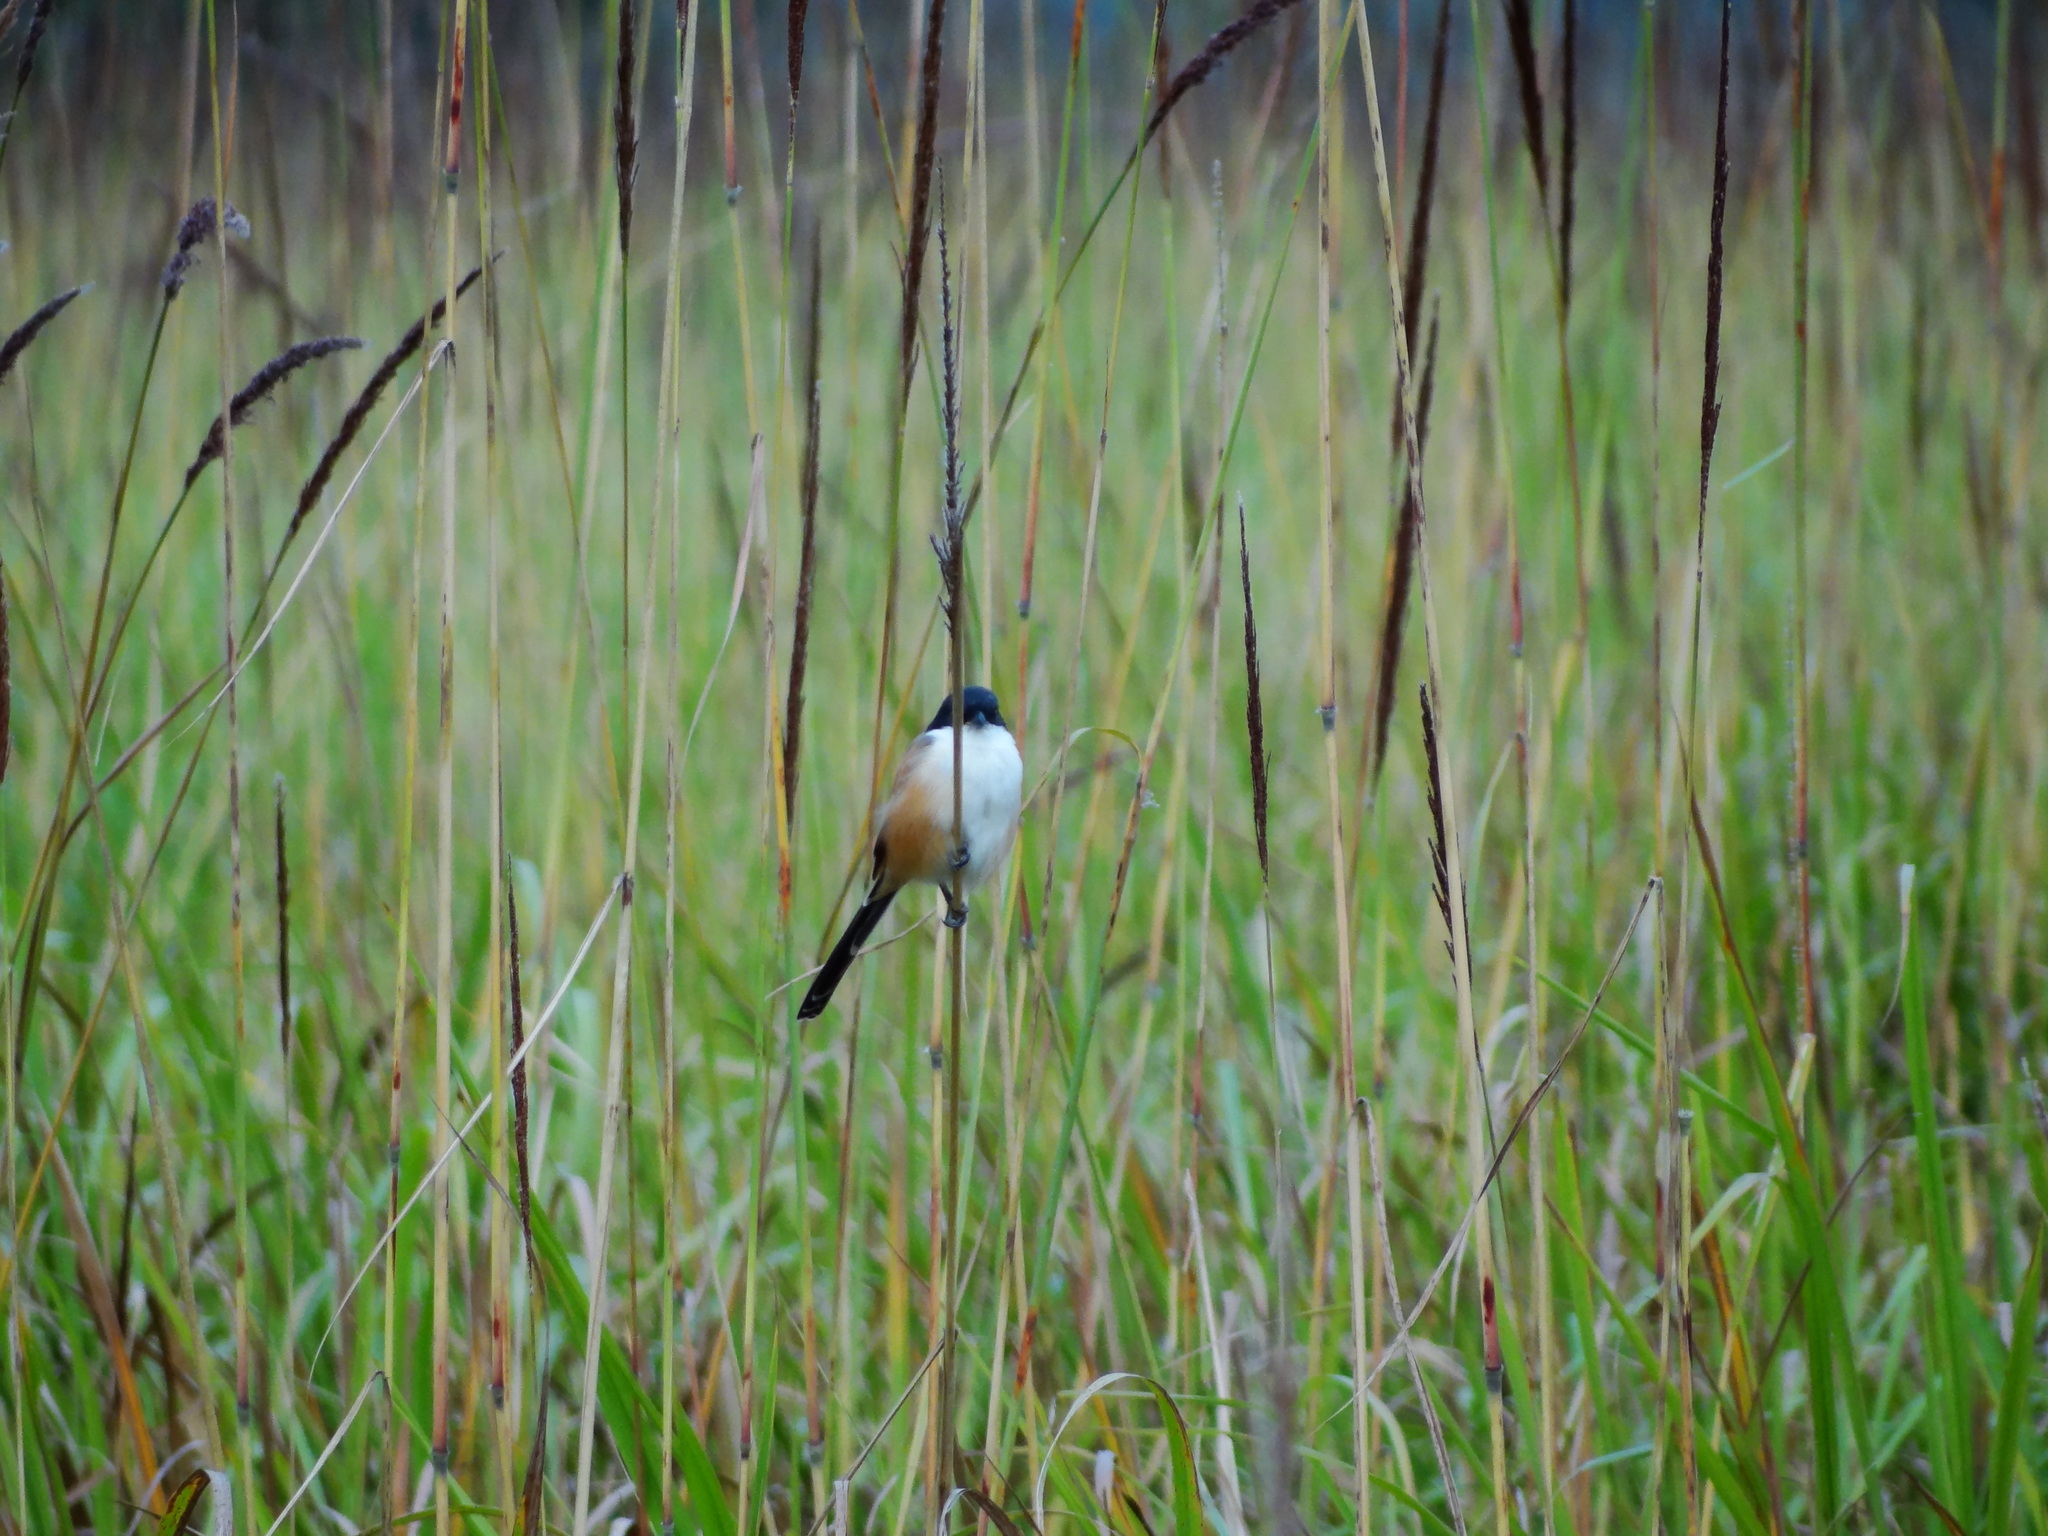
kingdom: Animalia
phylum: Chordata
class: Aves
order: Passeriformes
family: Laniidae
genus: Lanius
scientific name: Lanius schach
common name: Long-tailed shrike
